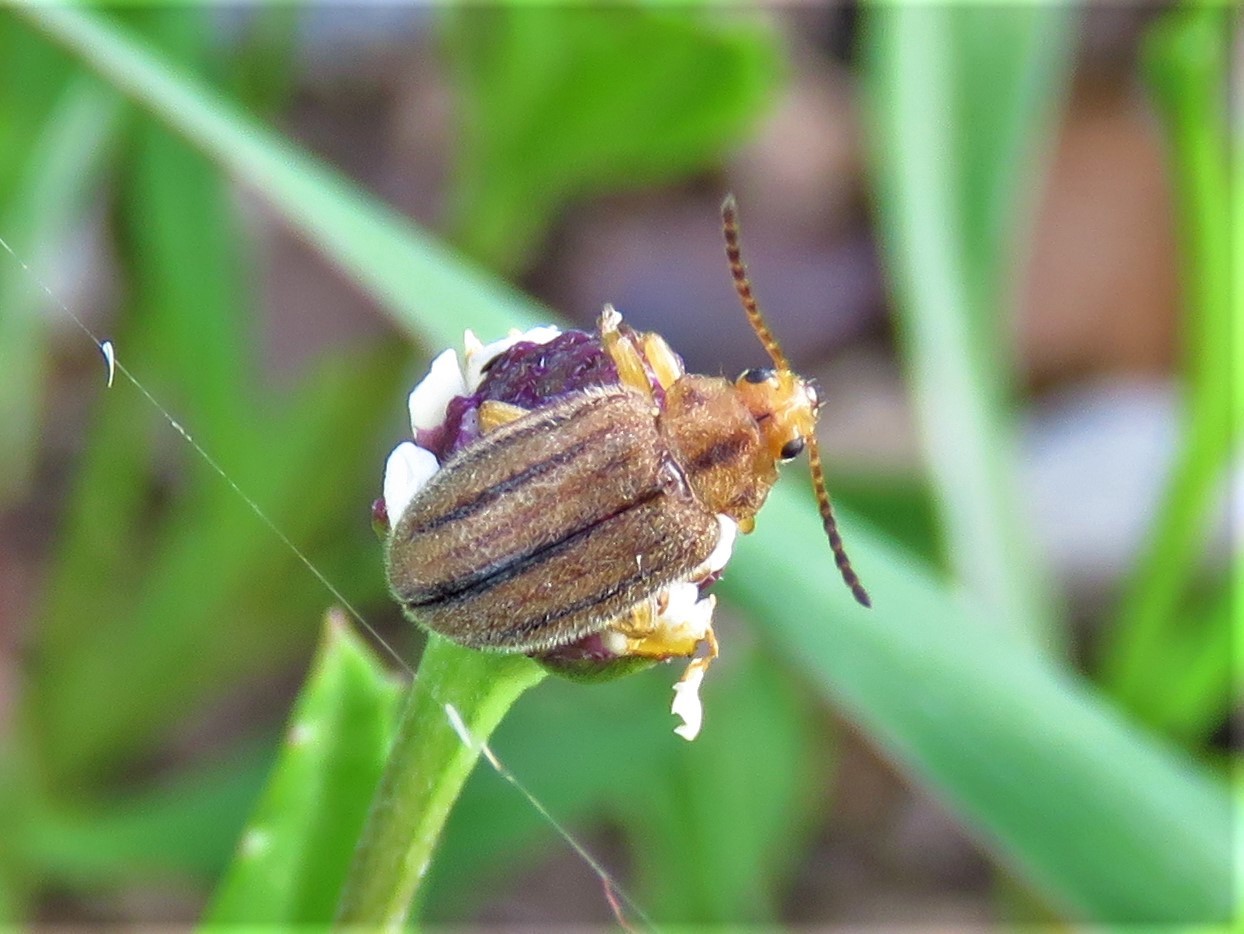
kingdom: Animalia
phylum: Arthropoda
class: Insecta
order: Coleoptera
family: Chrysomelidae
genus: Ophraella
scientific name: Ophraella americana
